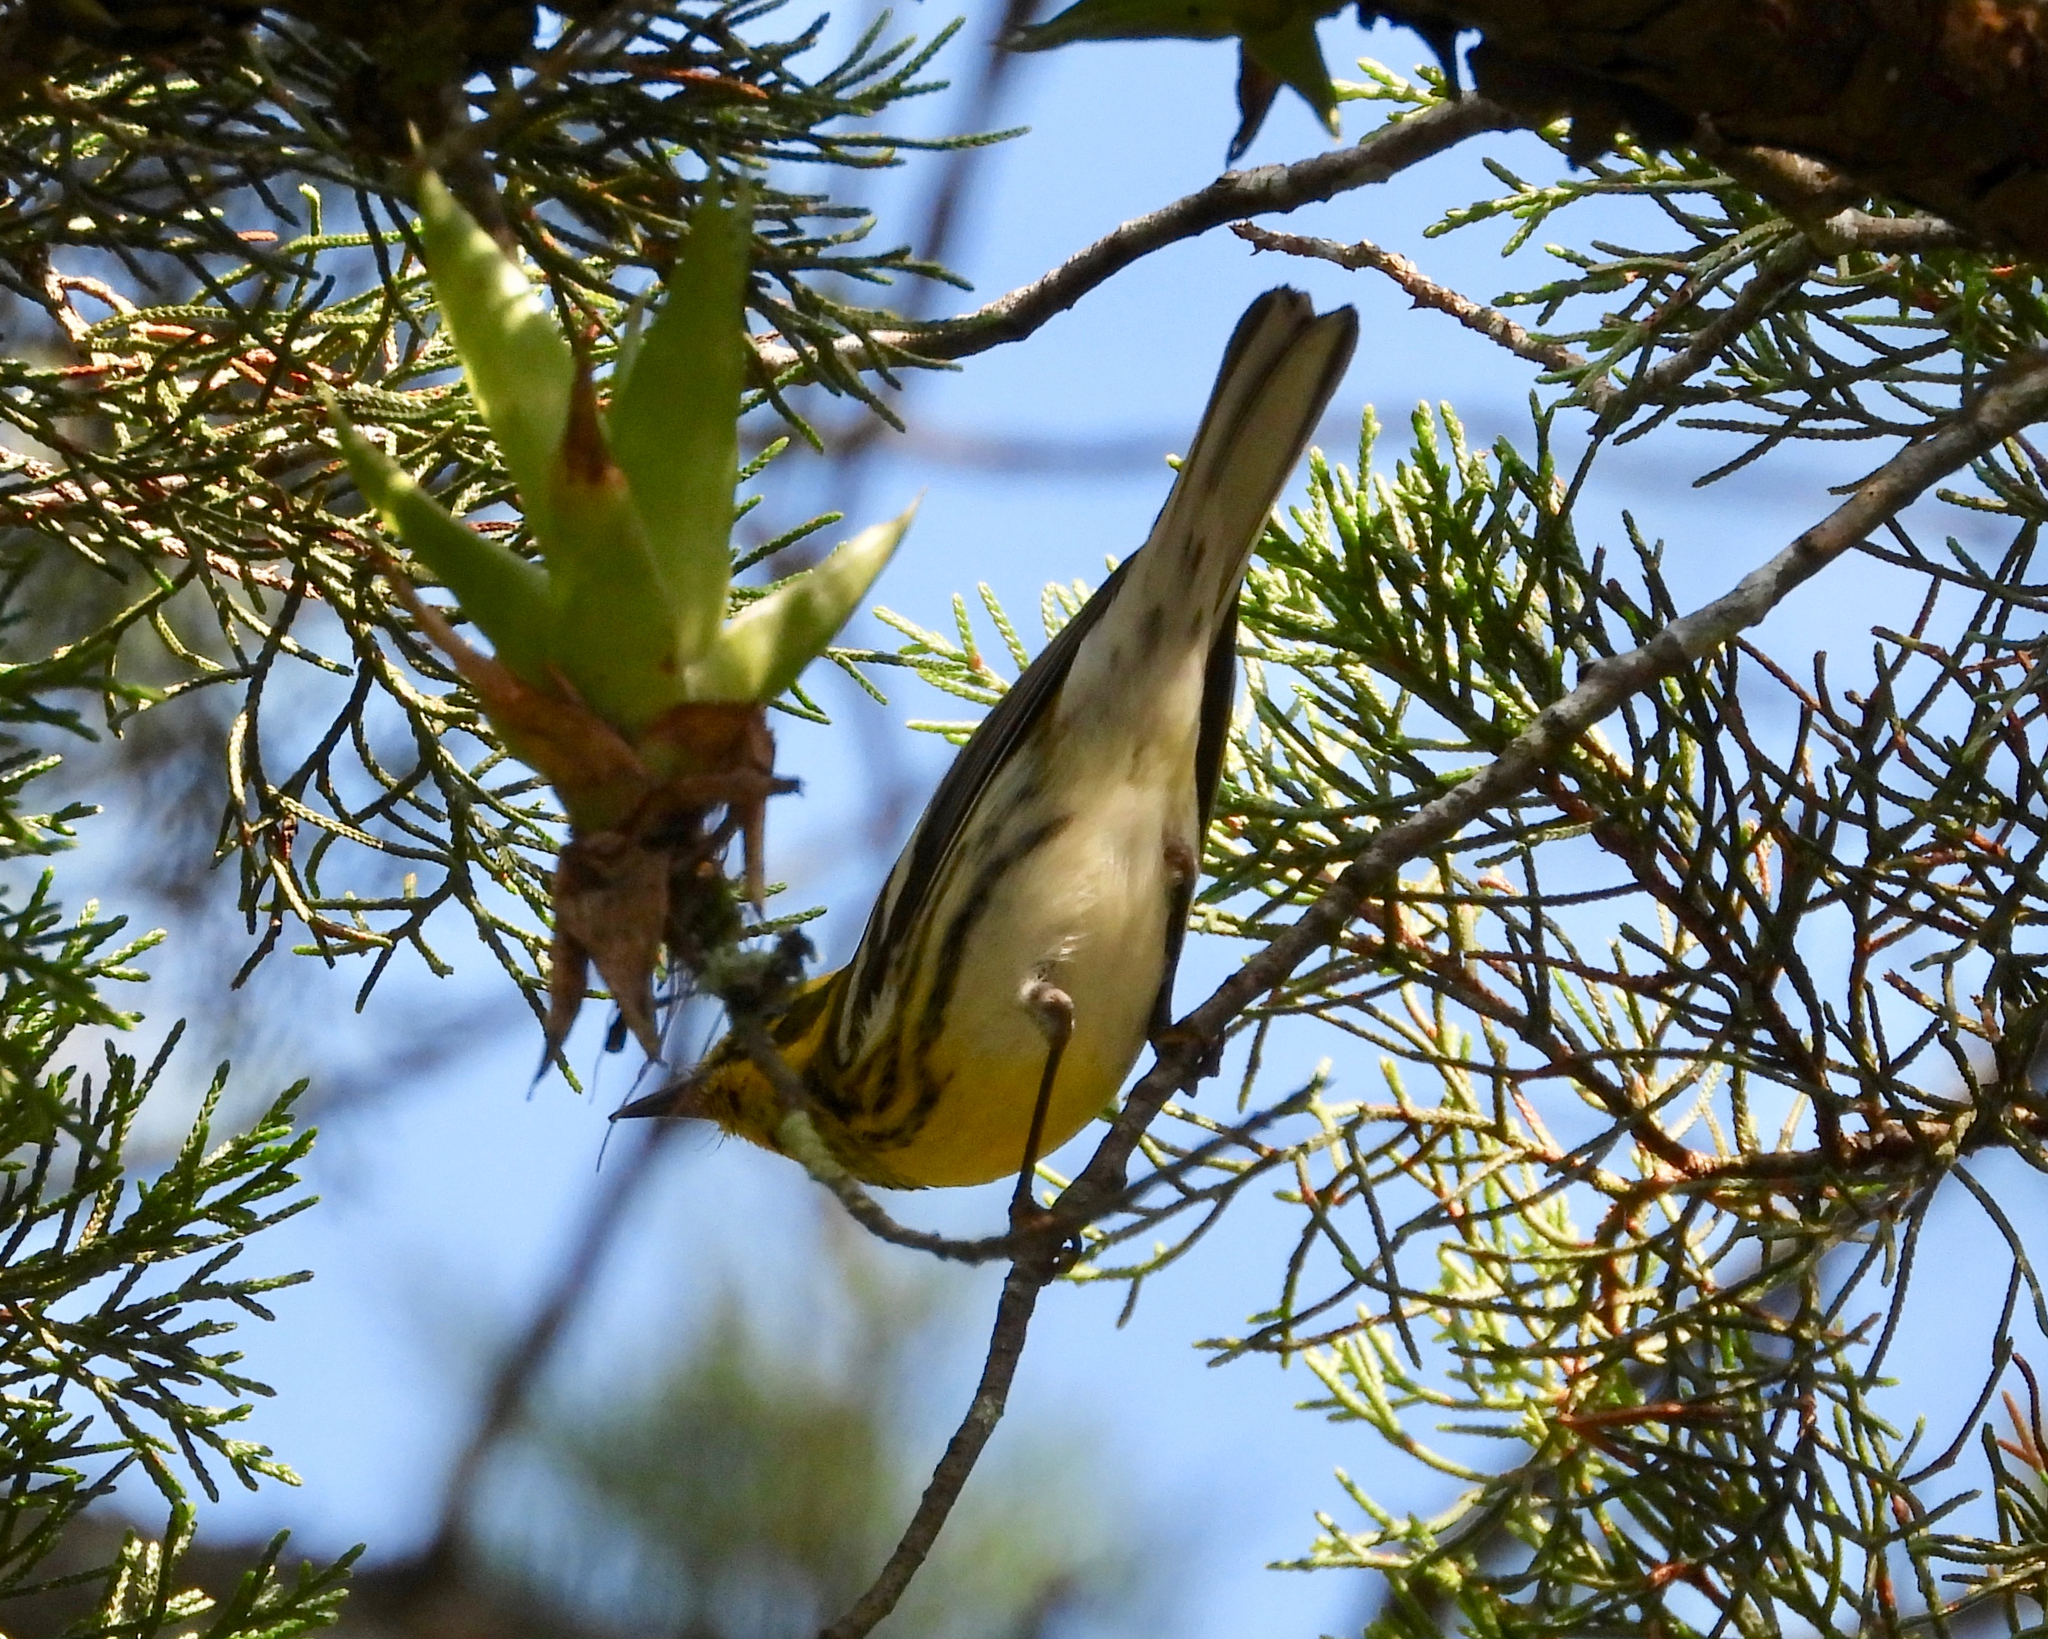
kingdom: Animalia
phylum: Chordata
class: Aves
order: Passeriformes
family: Parulidae
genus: Setophaga
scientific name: Setophaga townsendi
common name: Townsend's warbler
